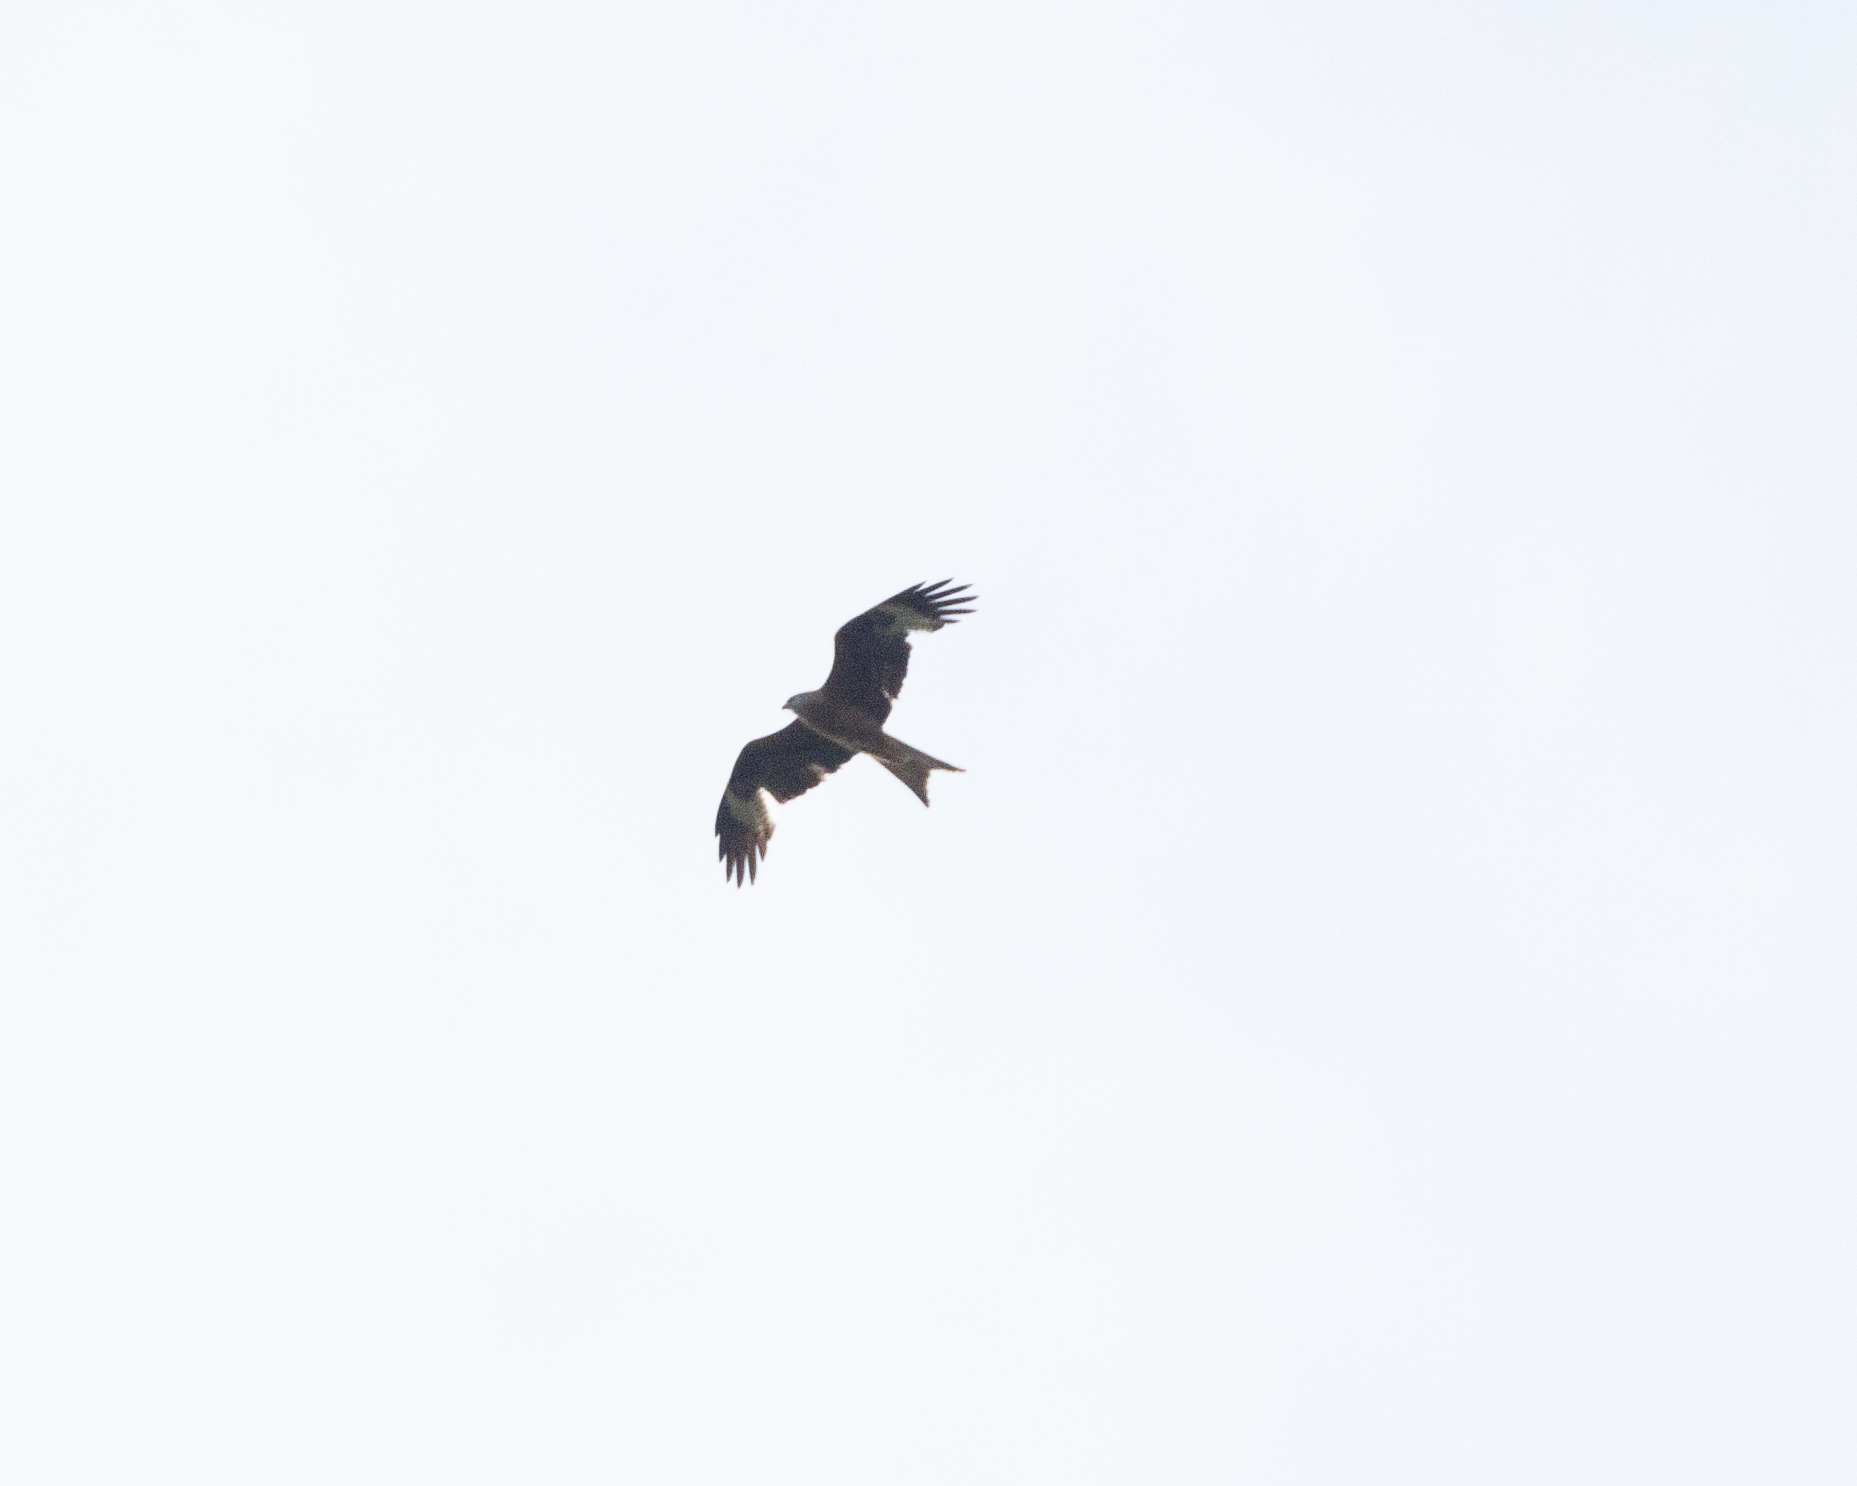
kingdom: Animalia
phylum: Chordata
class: Aves
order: Accipitriformes
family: Accipitridae
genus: Milvus
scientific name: Milvus milvus
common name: Red kite
